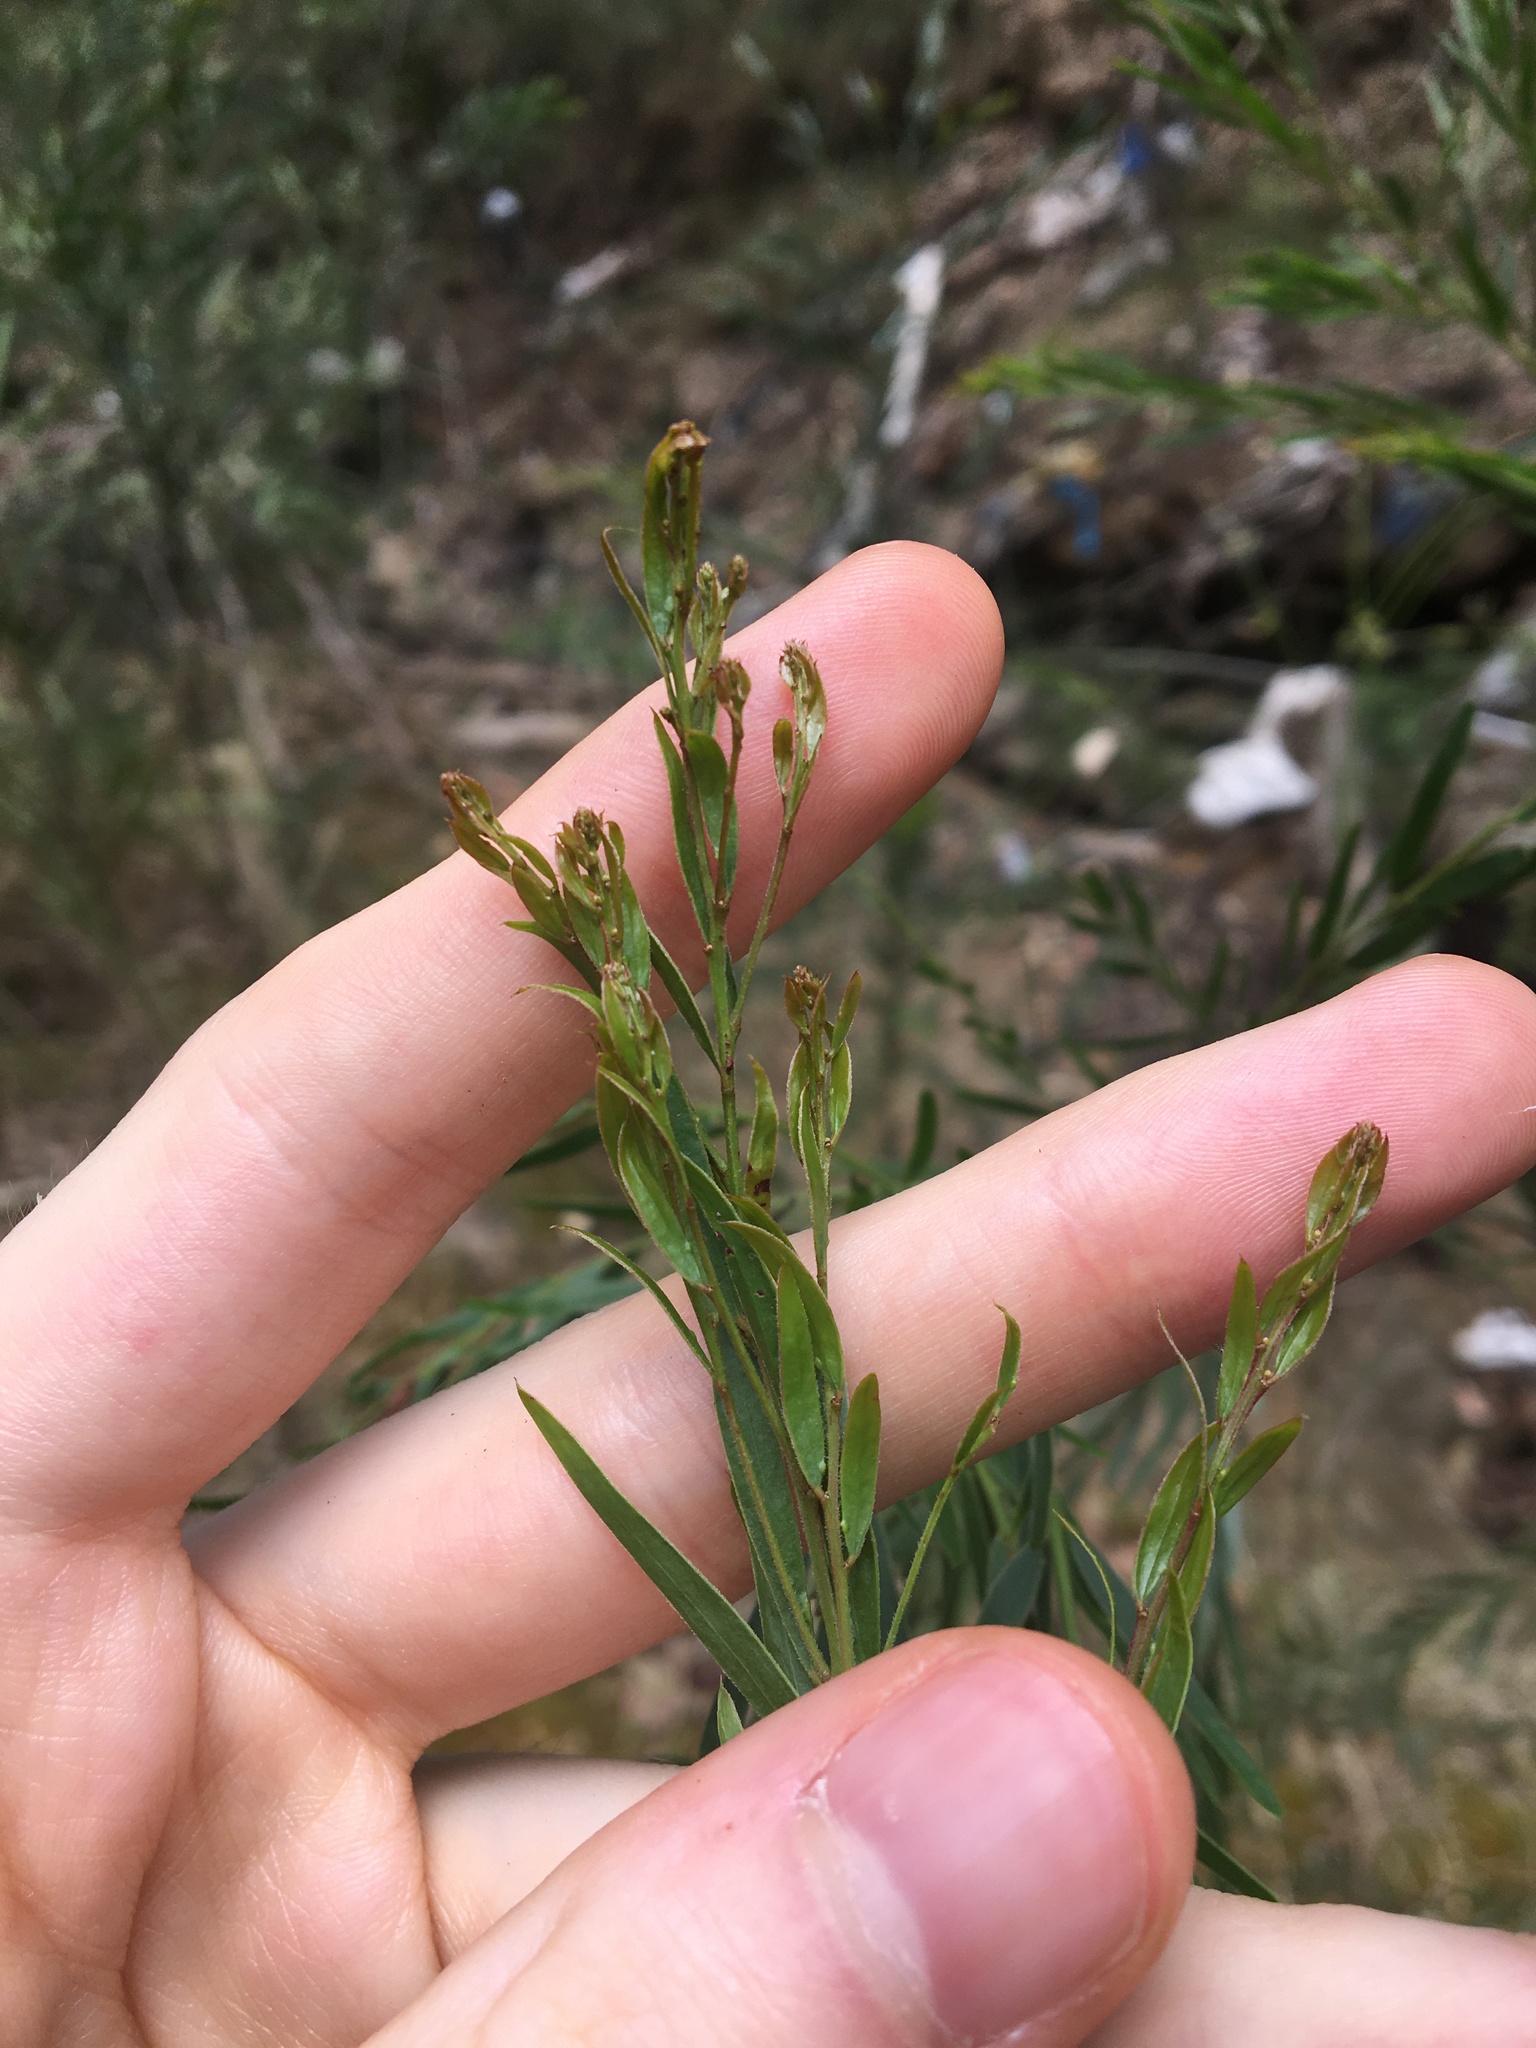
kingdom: Plantae
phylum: Tracheophyta
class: Magnoliopsida
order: Fabales
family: Fabaceae
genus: Acacia
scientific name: Acacia fimbriata
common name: Brisbane golden wattle
